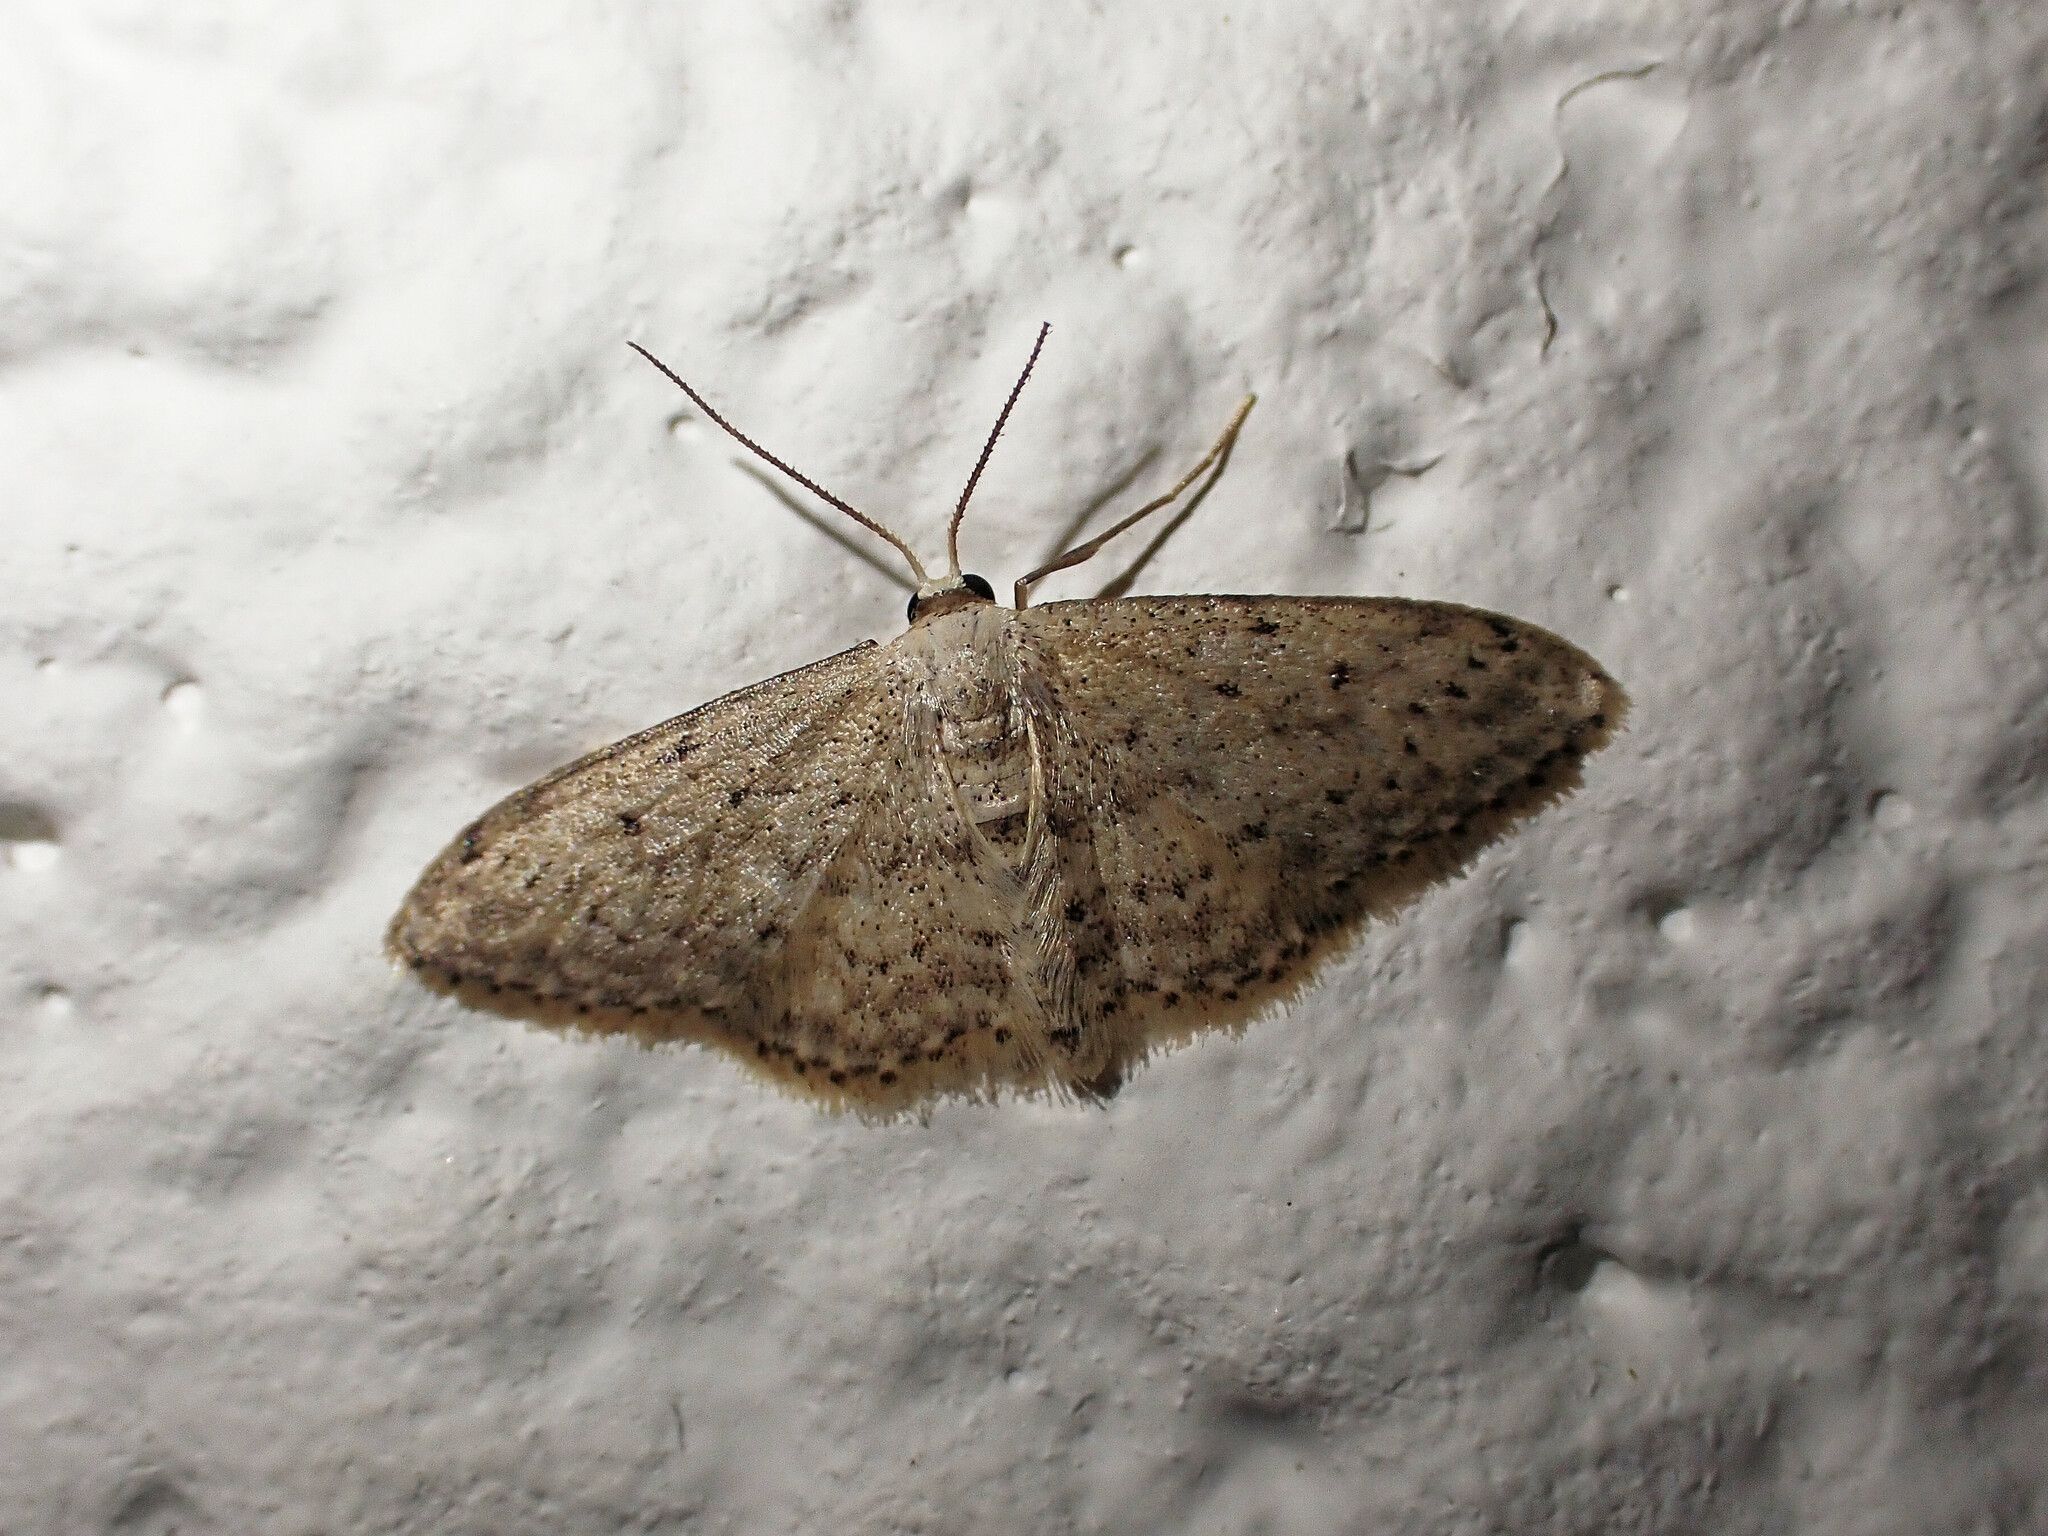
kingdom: Animalia
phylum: Arthropoda
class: Insecta
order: Lepidoptera
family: Geometridae
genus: Idaea
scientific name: Idaea seriata
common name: Small dusty wave
